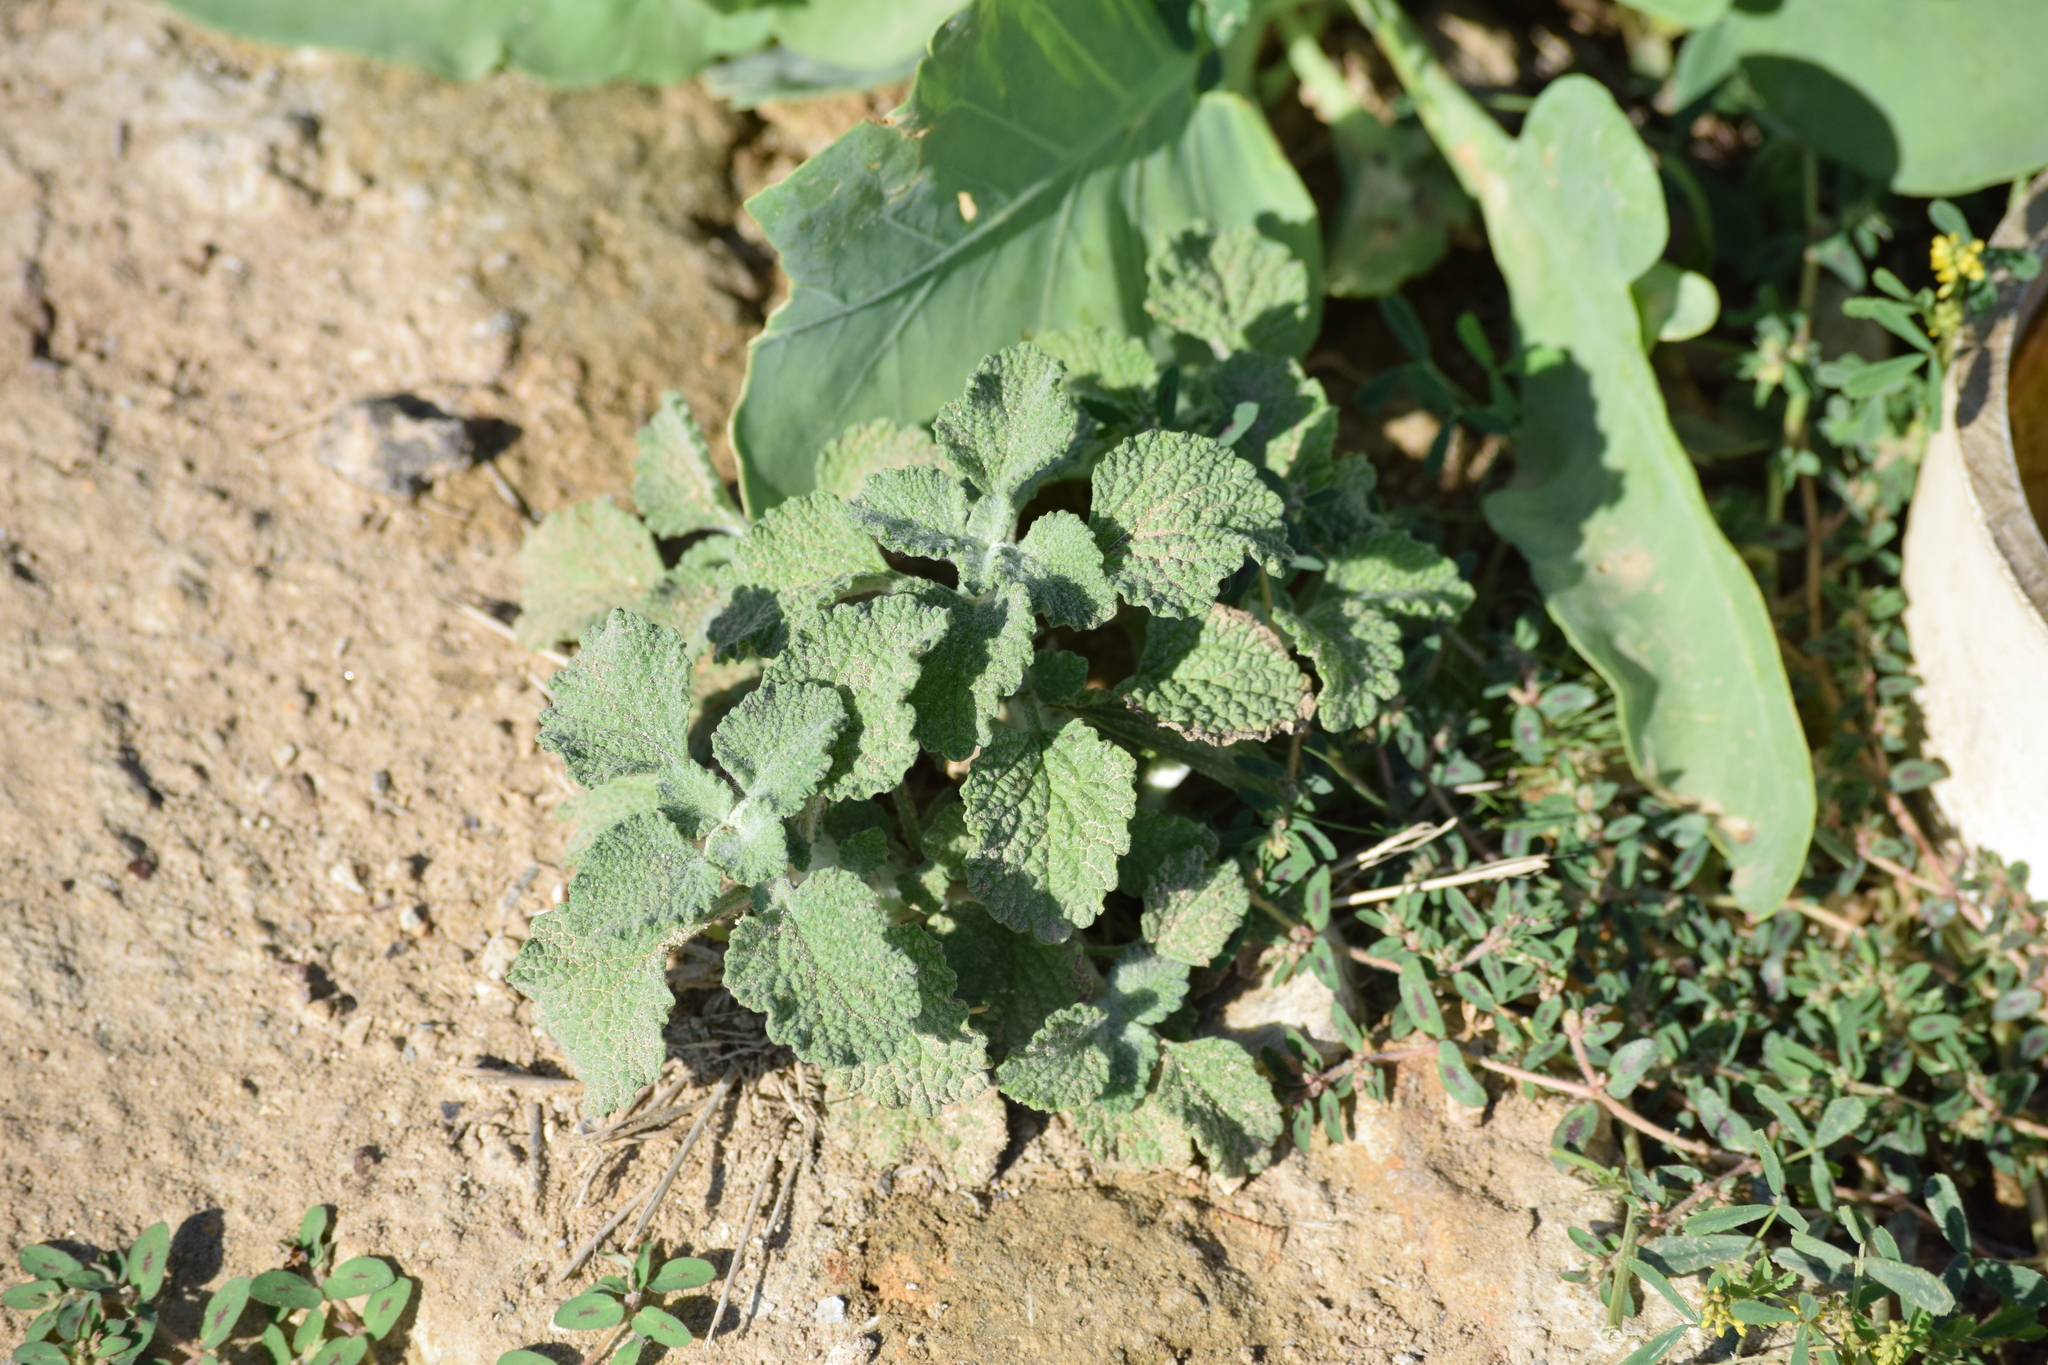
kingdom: Plantae
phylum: Tracheophyta
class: Magnoliopsida
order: Lamiales
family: Lamiaceae
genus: Marrubium
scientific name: Marrubium vulgare
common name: Horehound
